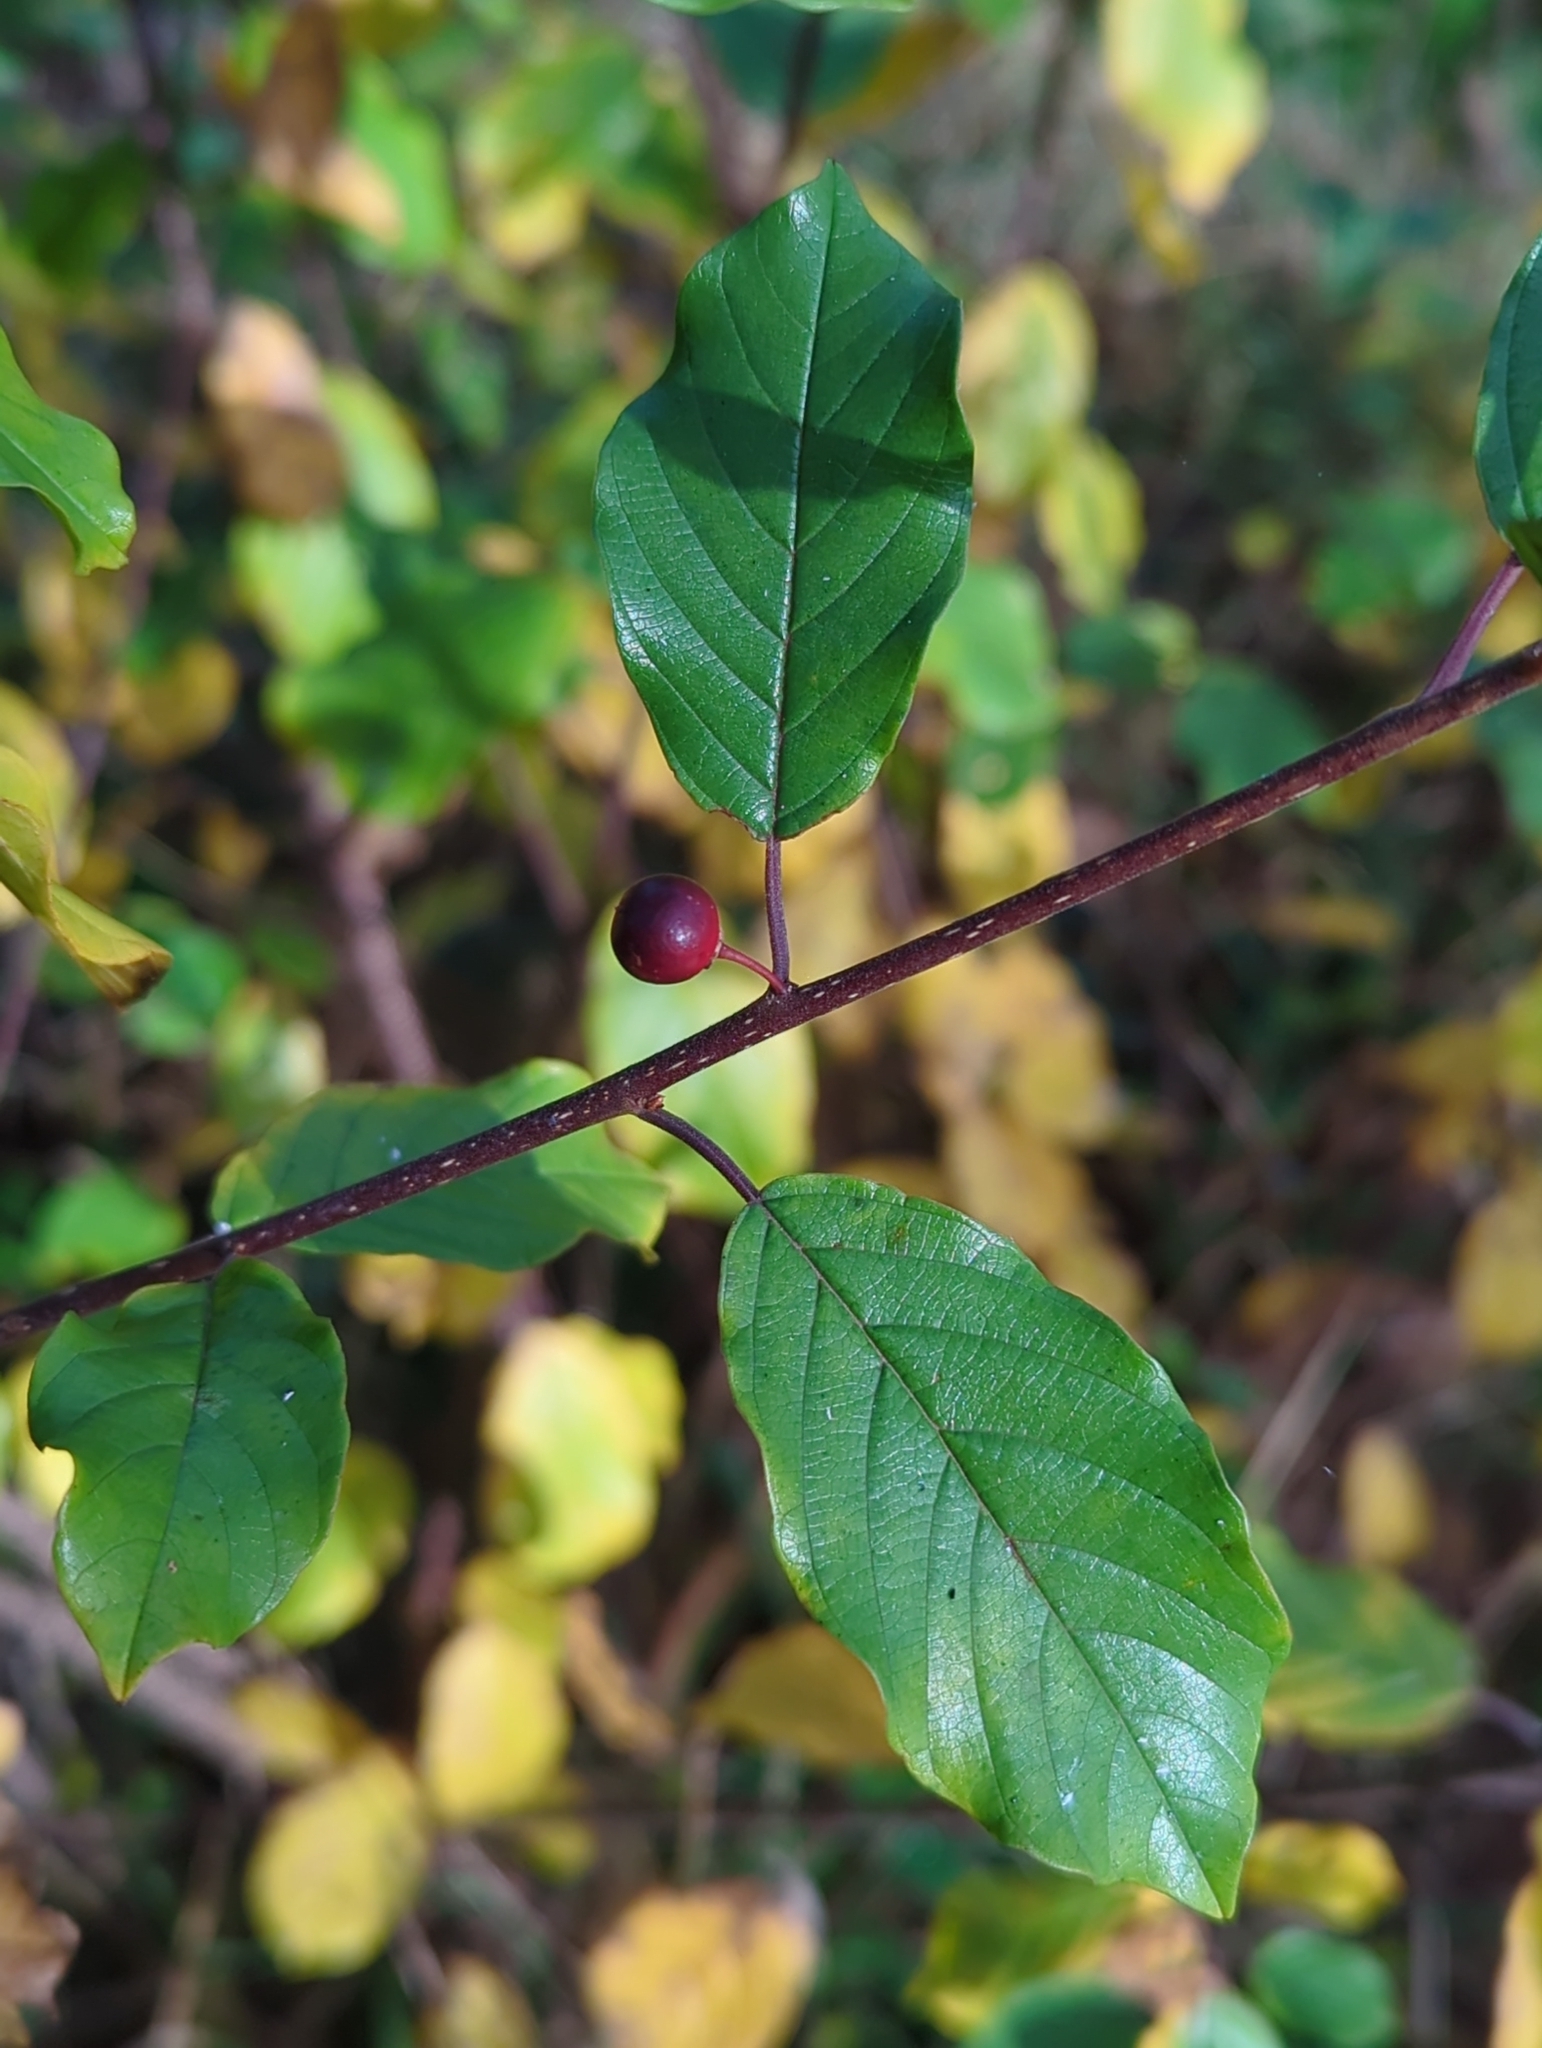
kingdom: Plantae
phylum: Tracheophyta
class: Magnoliopsida
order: Rosales
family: Rhamnaceae
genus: Frangula
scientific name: Frangula alnus
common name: Alder buckthorn
